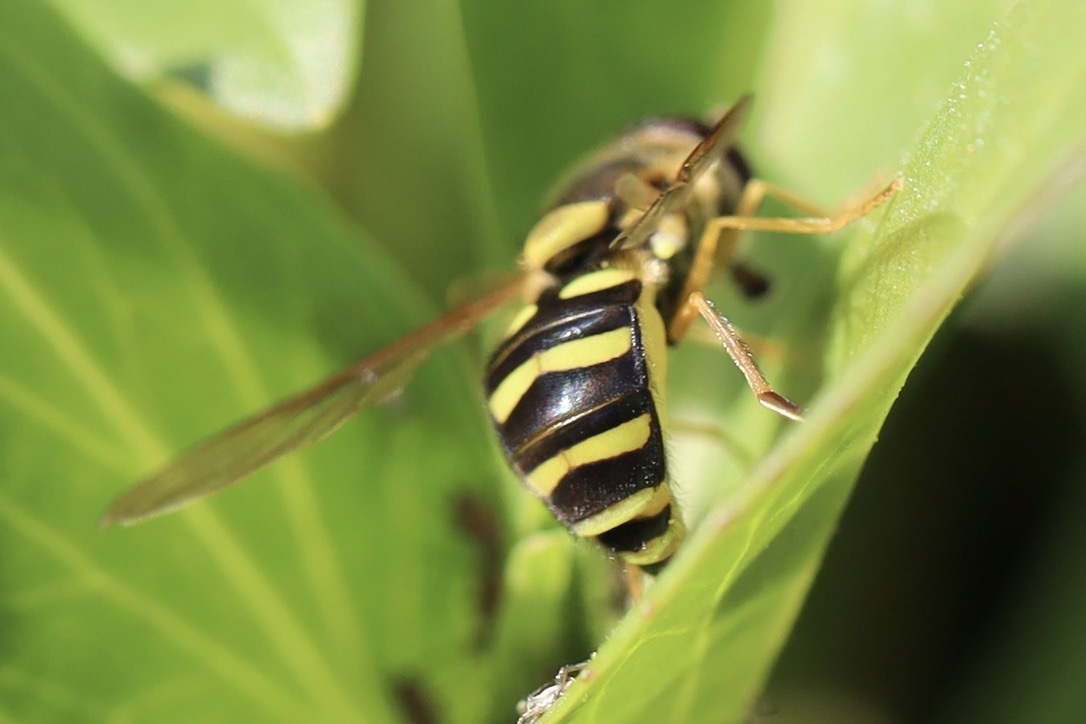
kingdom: Animalia
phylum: Arthropoda
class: Insecta
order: Diptera
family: Syrphidae
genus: Syrphus
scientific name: Syrphus opinator
